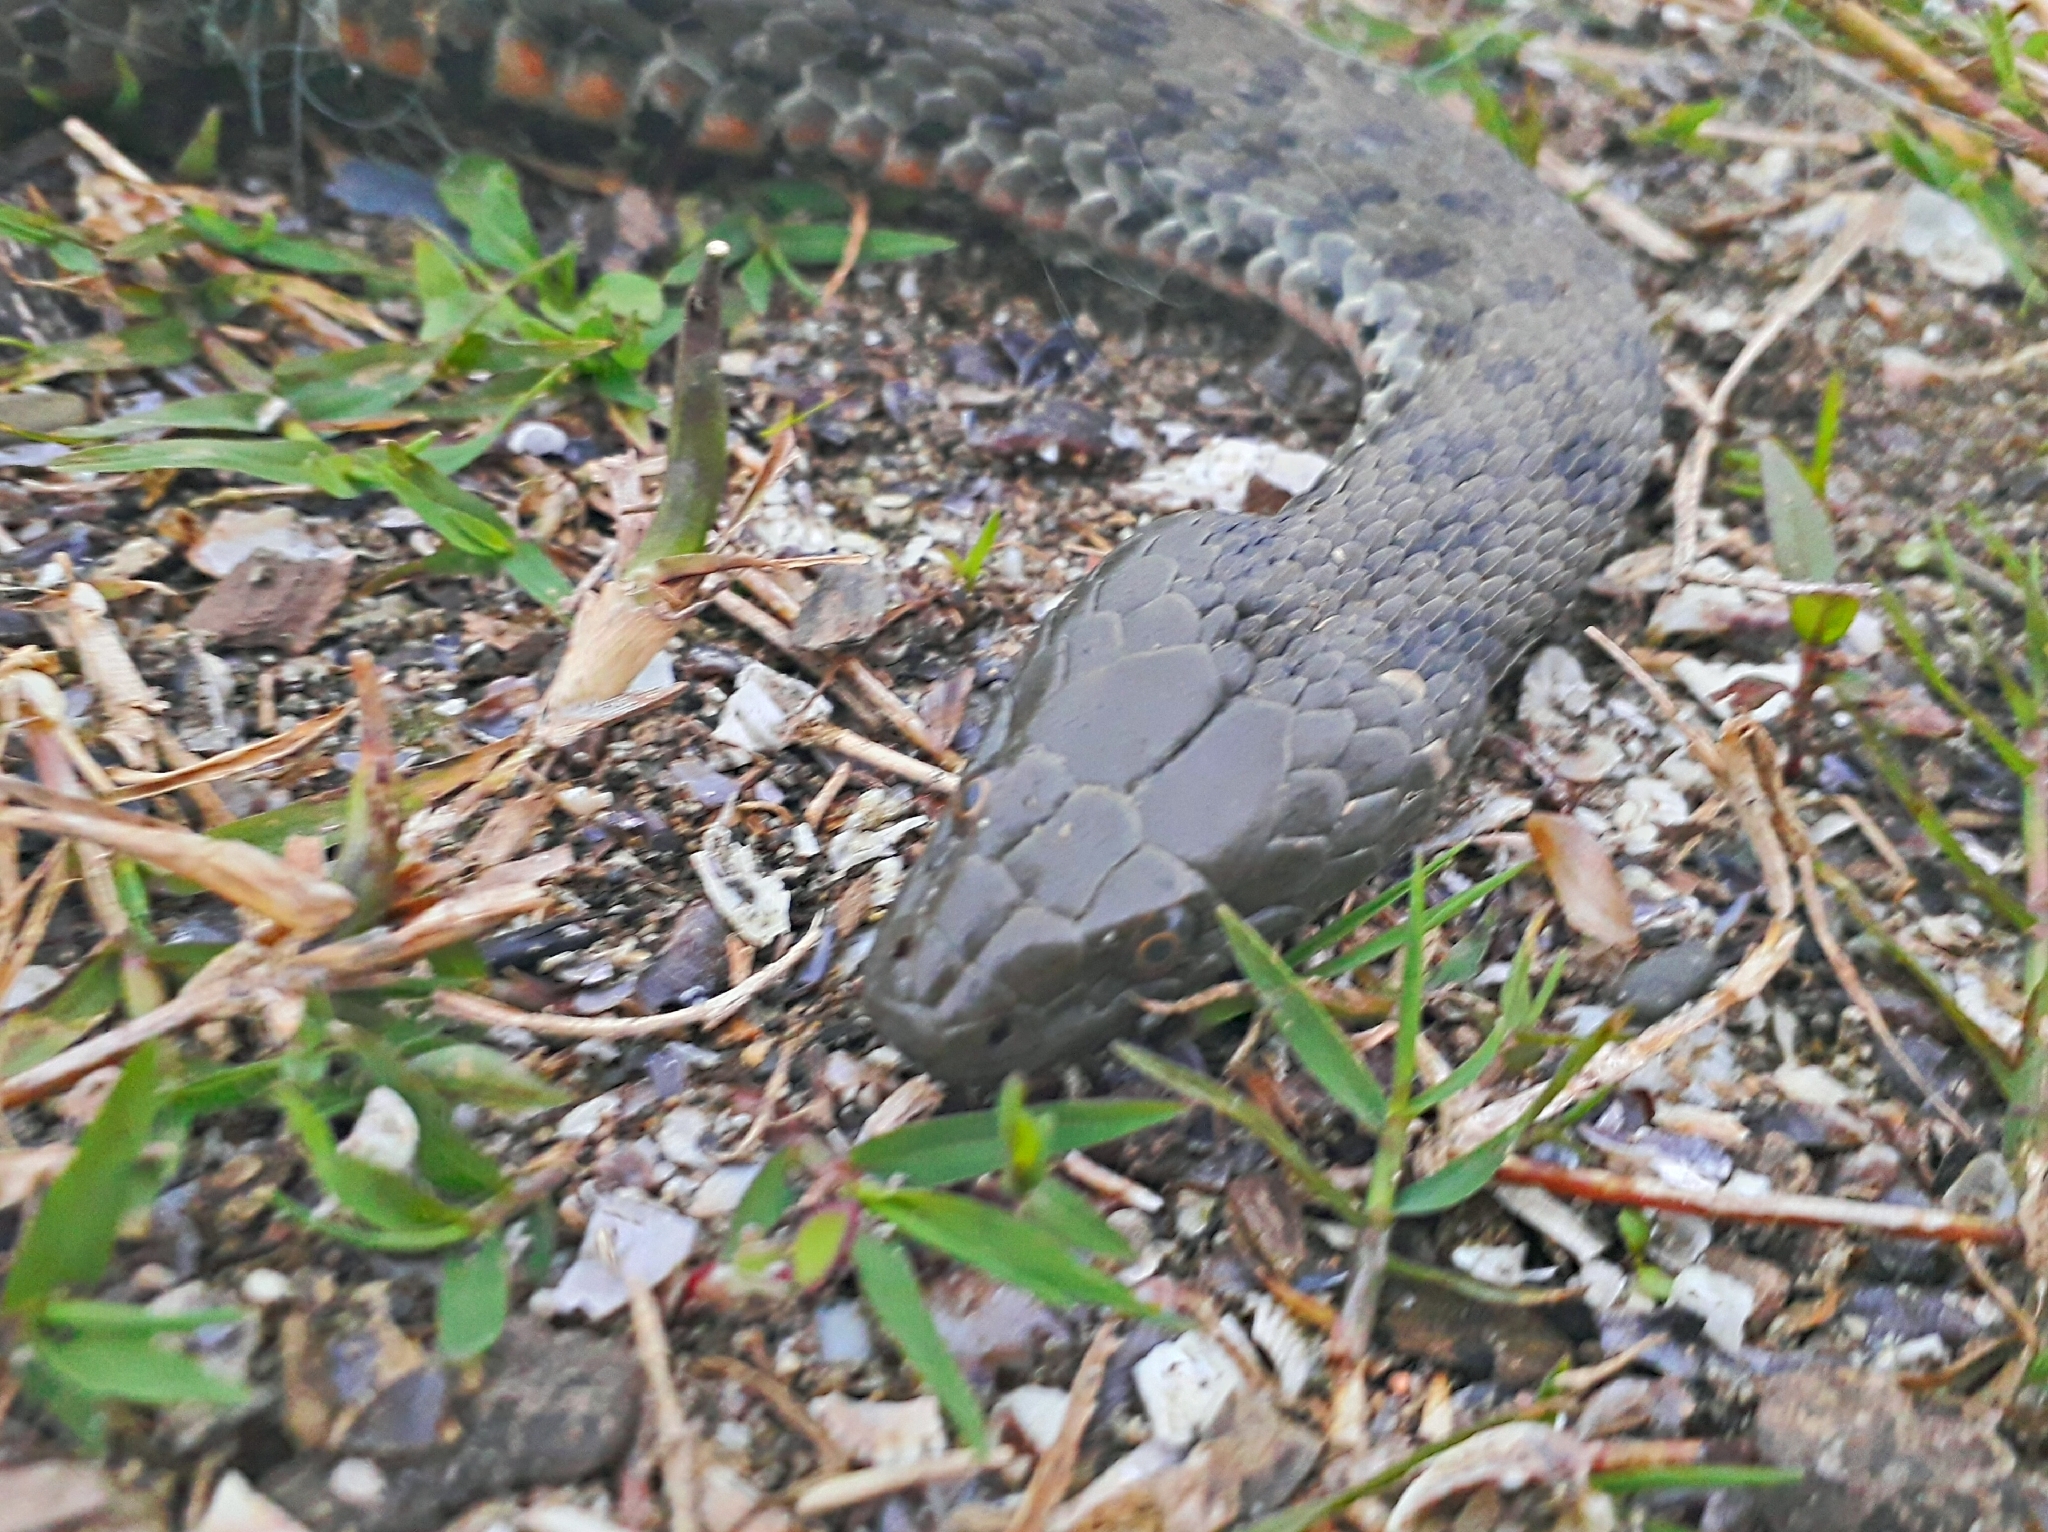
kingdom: Animalia
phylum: Chordata
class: Squamata
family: Colubridae
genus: Natrix
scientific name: Natrix tessellata
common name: Dice snake
